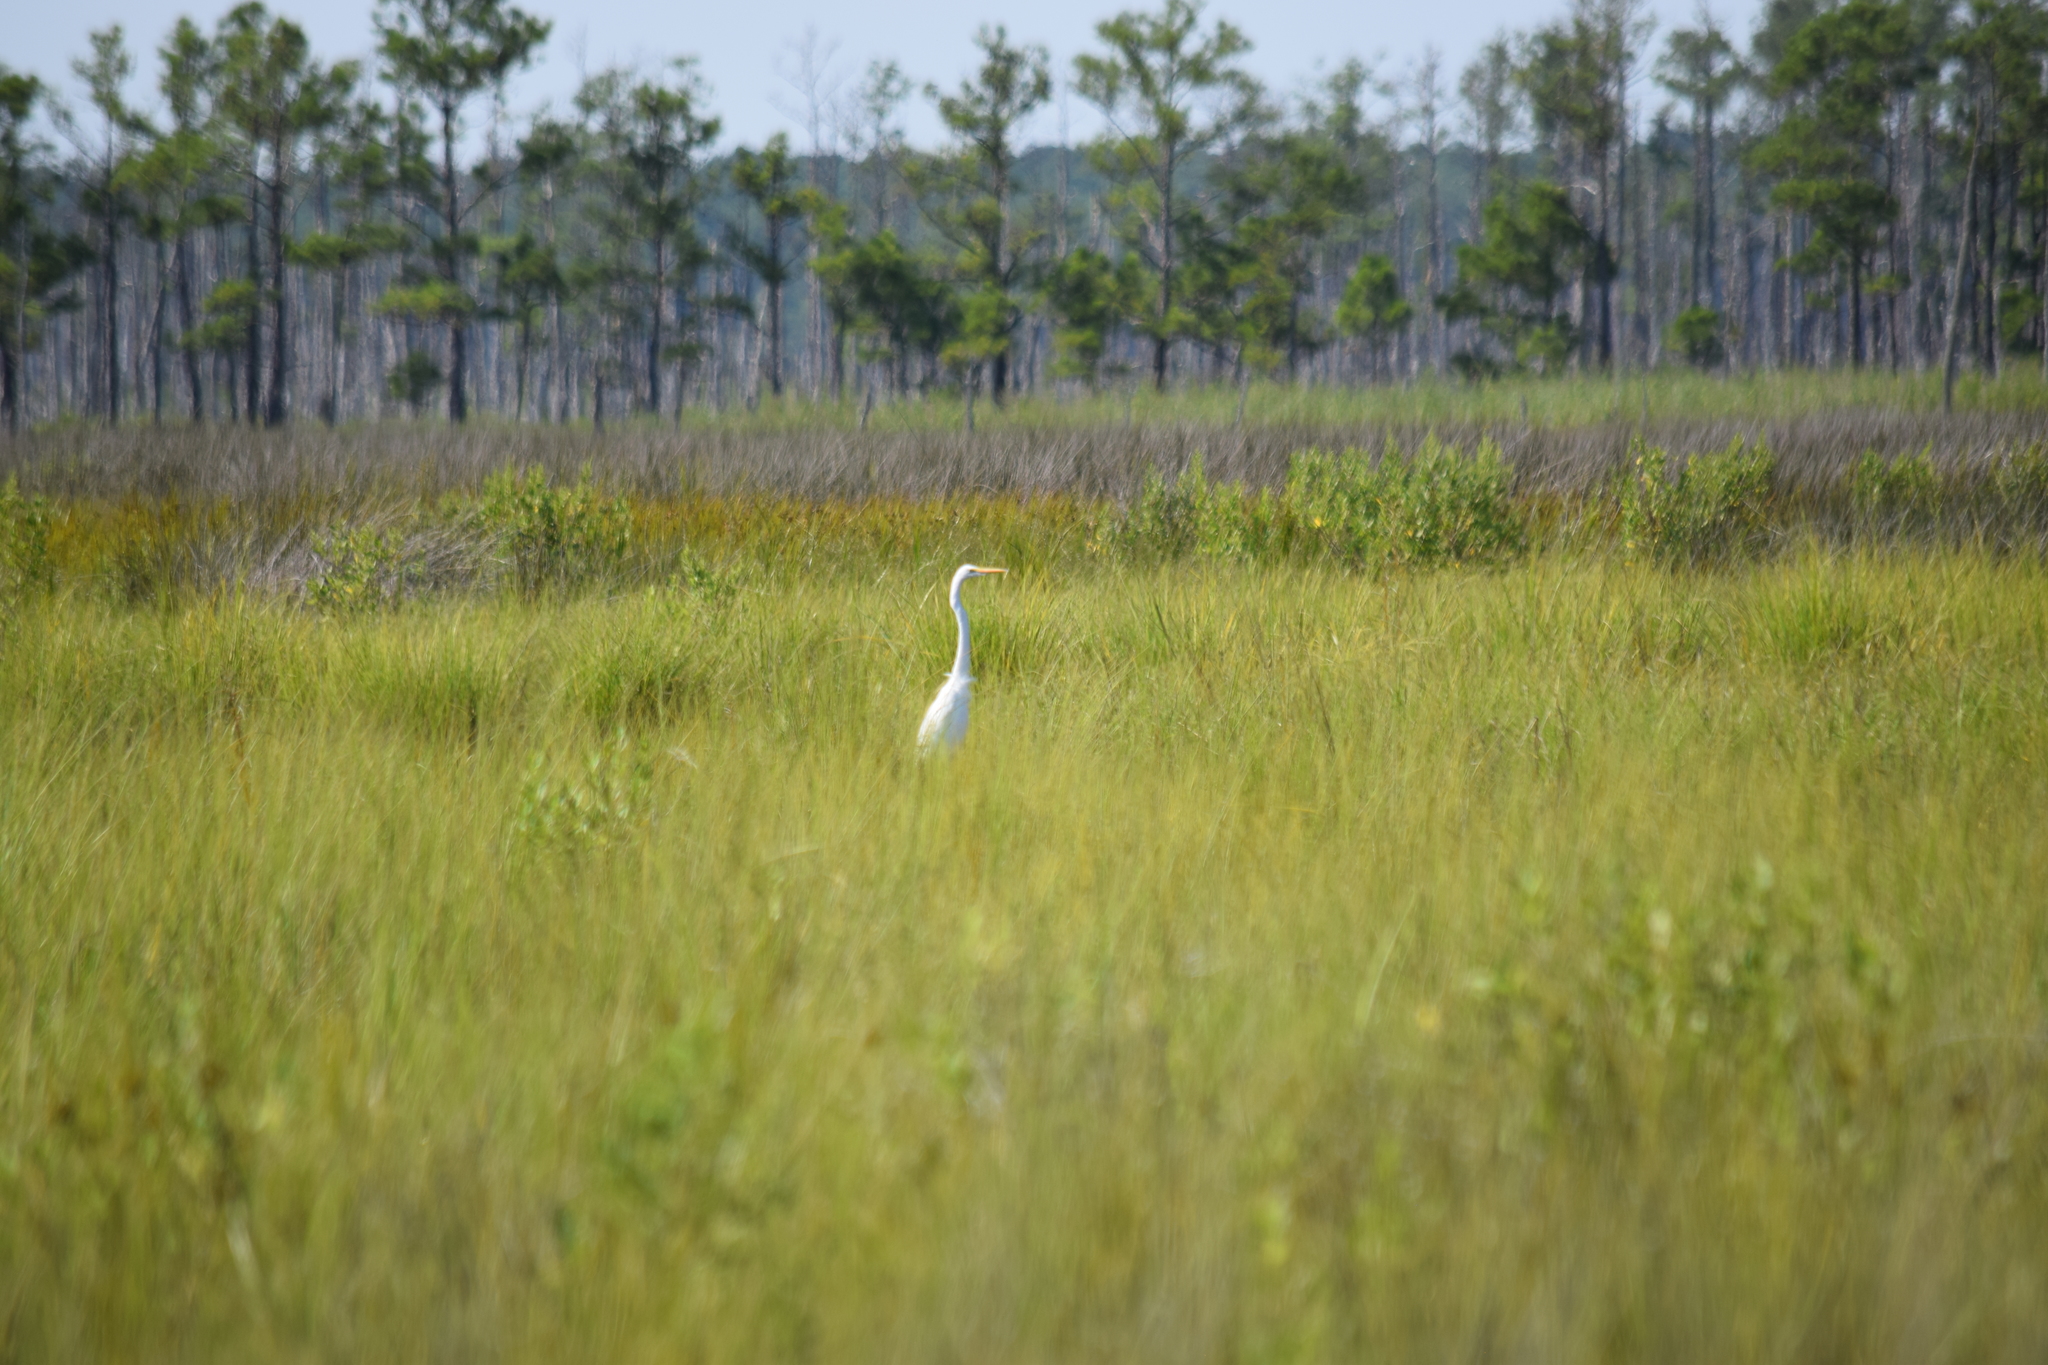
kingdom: Animalia
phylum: Chordata
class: Aves
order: Pelecaniformes
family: Ardeidae
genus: Ardea
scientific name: Ardea alba
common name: Great egret
